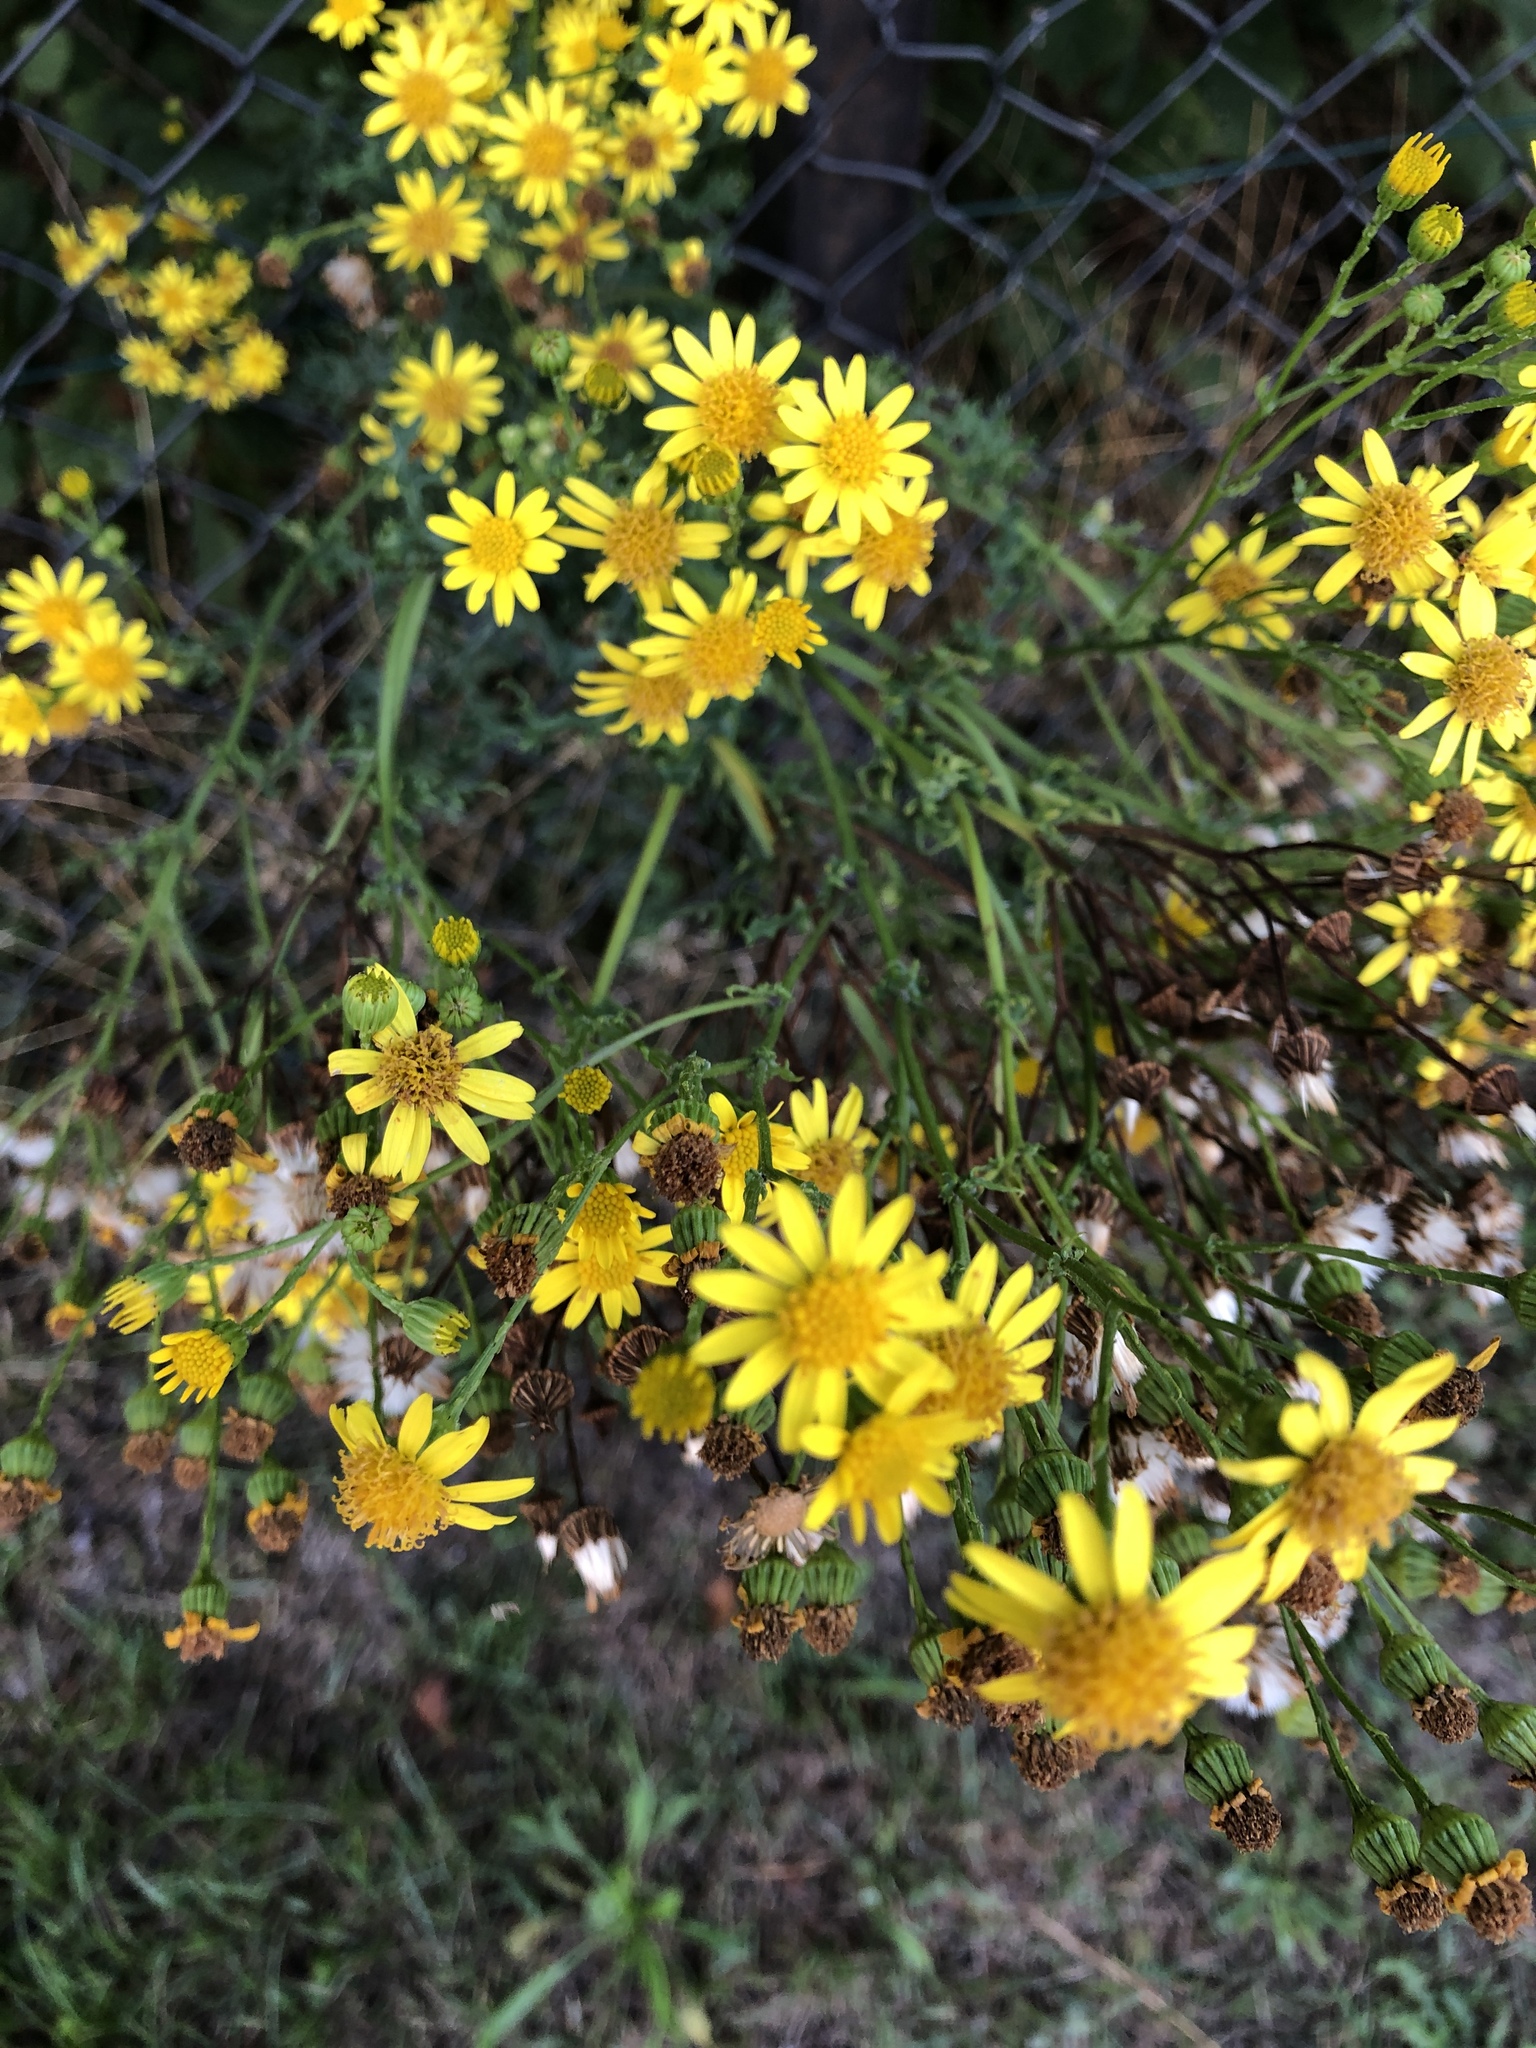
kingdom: Plantae
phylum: Tracheophyta
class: Magnoliopsida
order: Asterales
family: Asteraceae
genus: Senecio
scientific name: Senecio inaequidens
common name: Narrow-leaved ragwort
